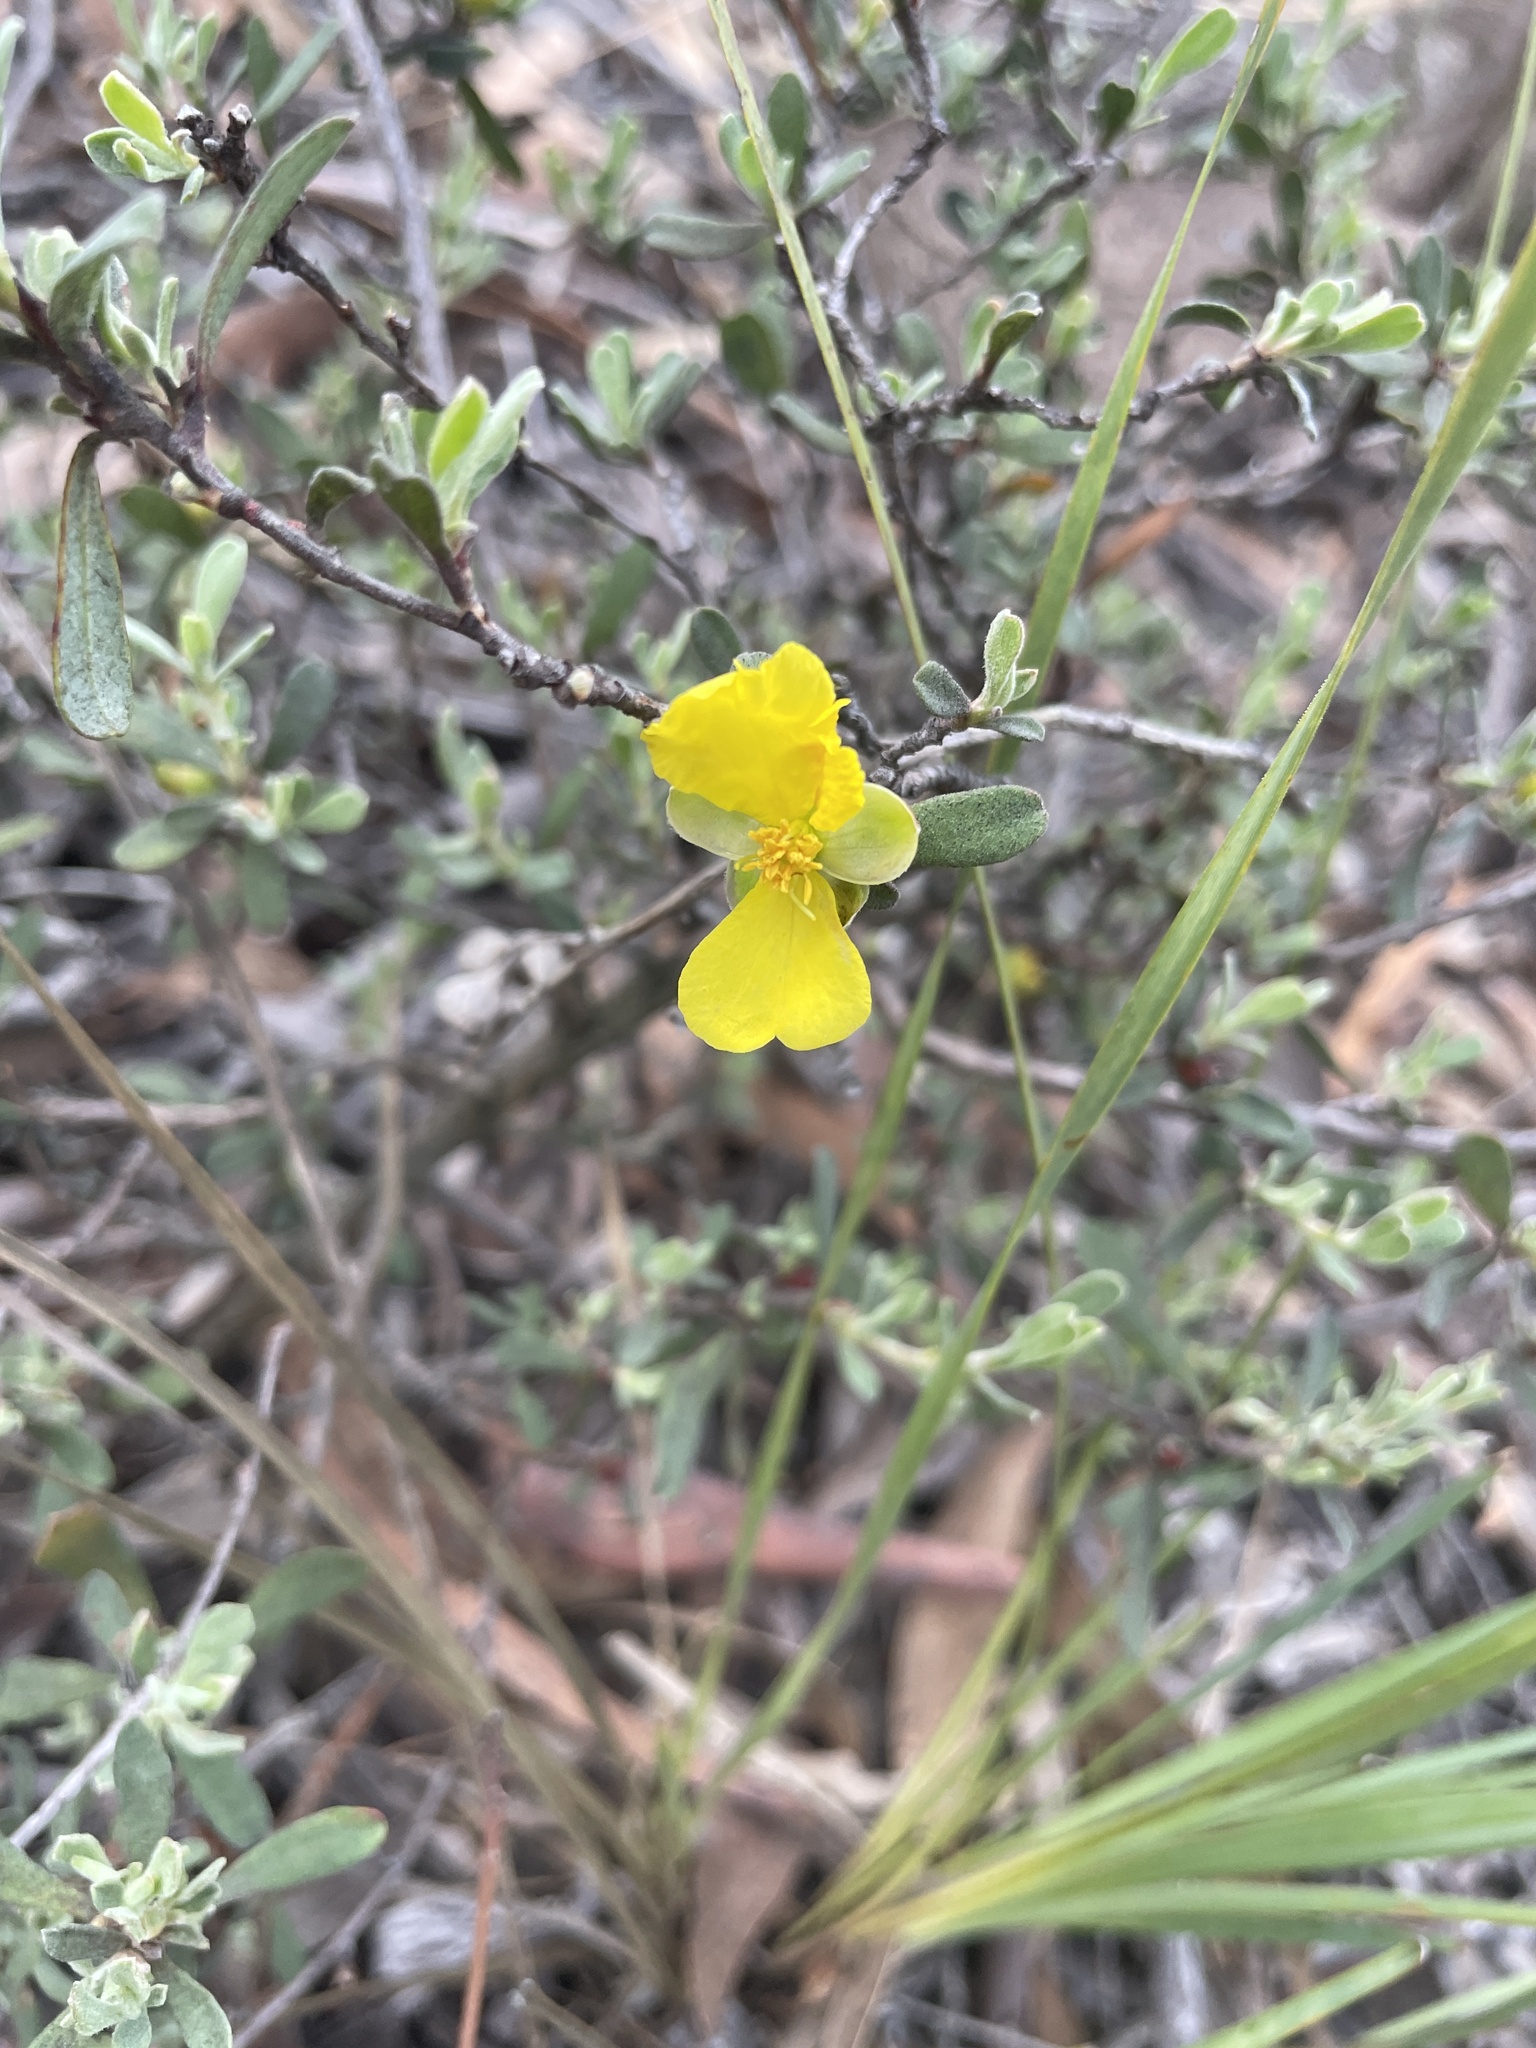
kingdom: Plantae
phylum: Tracheophyta
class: Magnoliopsida
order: Dilleniales
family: Dilleniaceae
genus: Hibbertia
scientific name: Hibbertia obtusifolia
